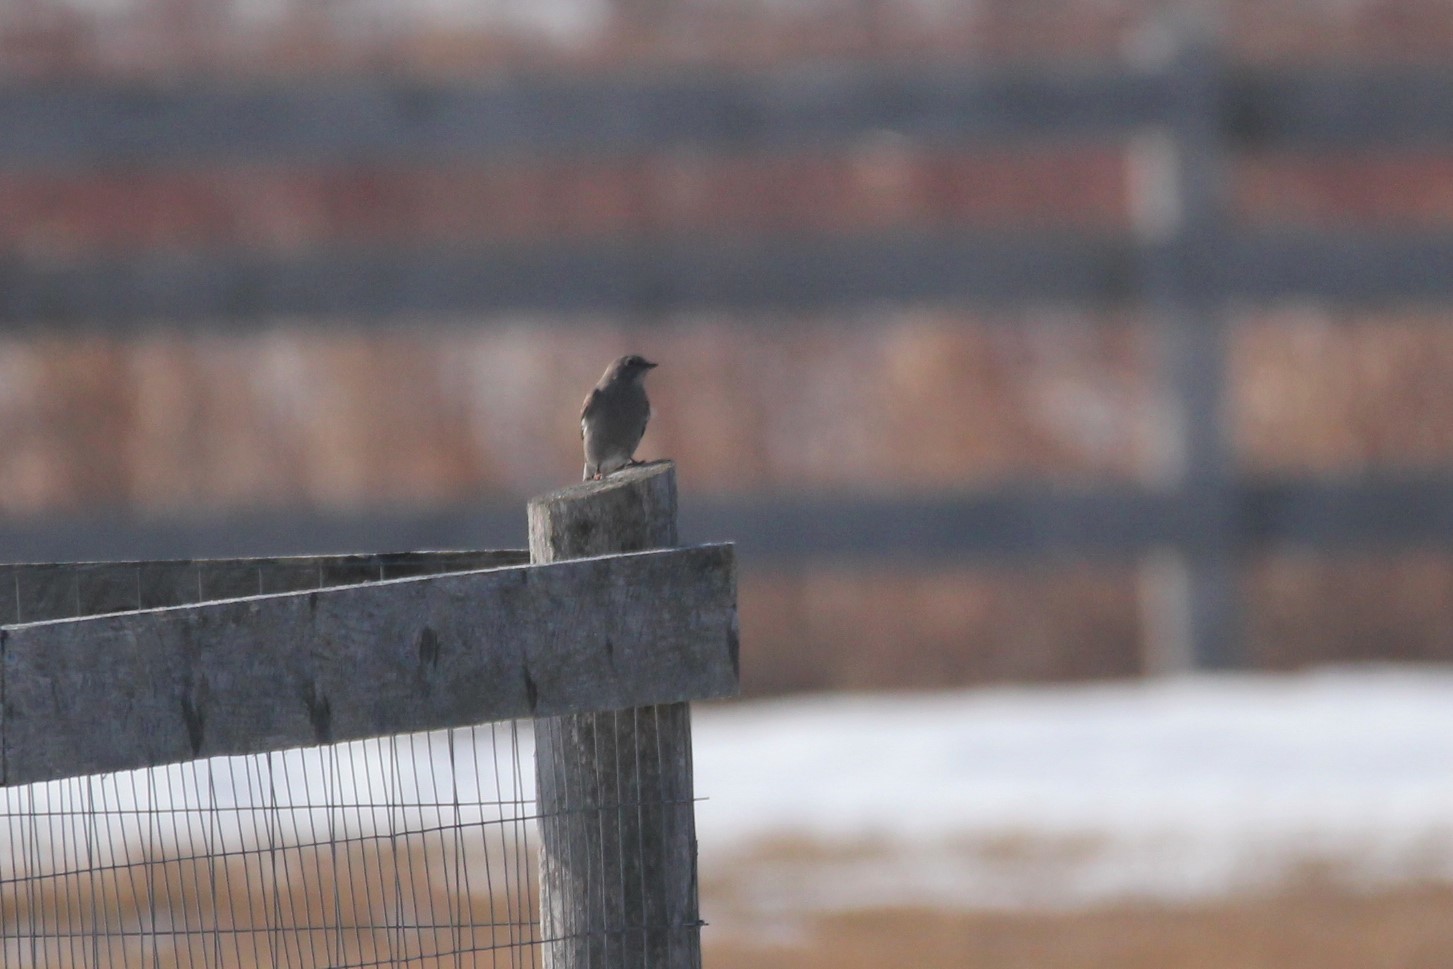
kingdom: Animalia
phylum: Chordata
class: Aves
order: Passeriformes
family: Turdidae
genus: Myadestes
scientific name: Myadestes townsendi
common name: Townsend's solitaire
